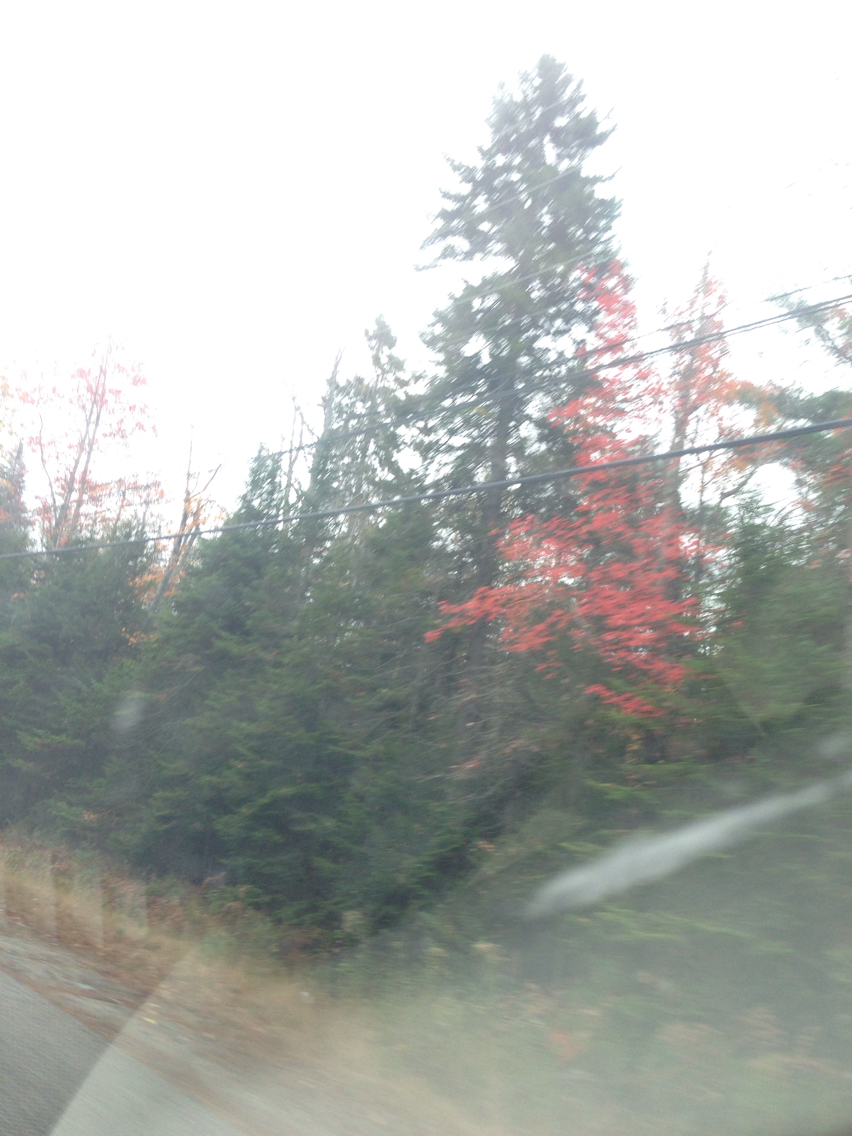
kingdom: Plantae
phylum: Tracheophyta
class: Magnoliopsida
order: Sapindales
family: Sapindaceae
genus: Acer
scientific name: Acer rubrum
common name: Red maple
